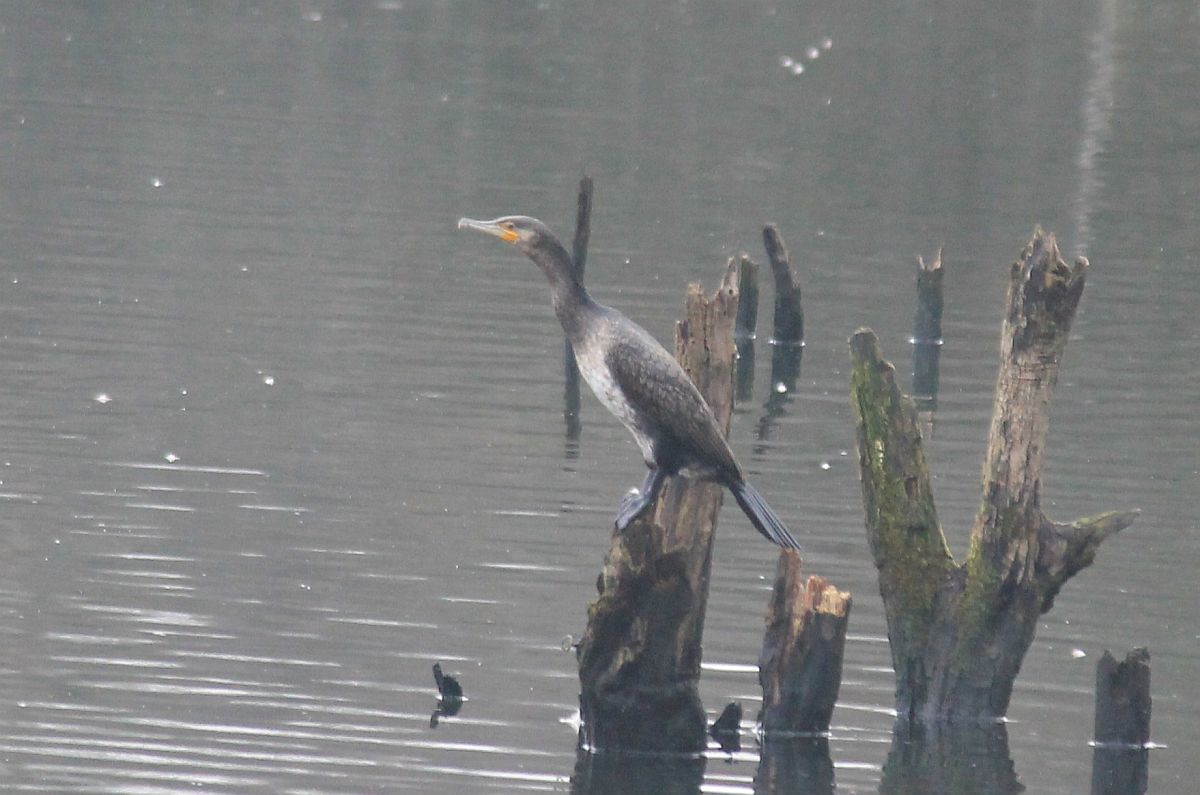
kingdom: Animalia
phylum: Chordata
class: Aves
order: Suliformes
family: Phalacrocoracidae
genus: Phalacrocorax
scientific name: Phalacrocorax carbo
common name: Great cormorant
